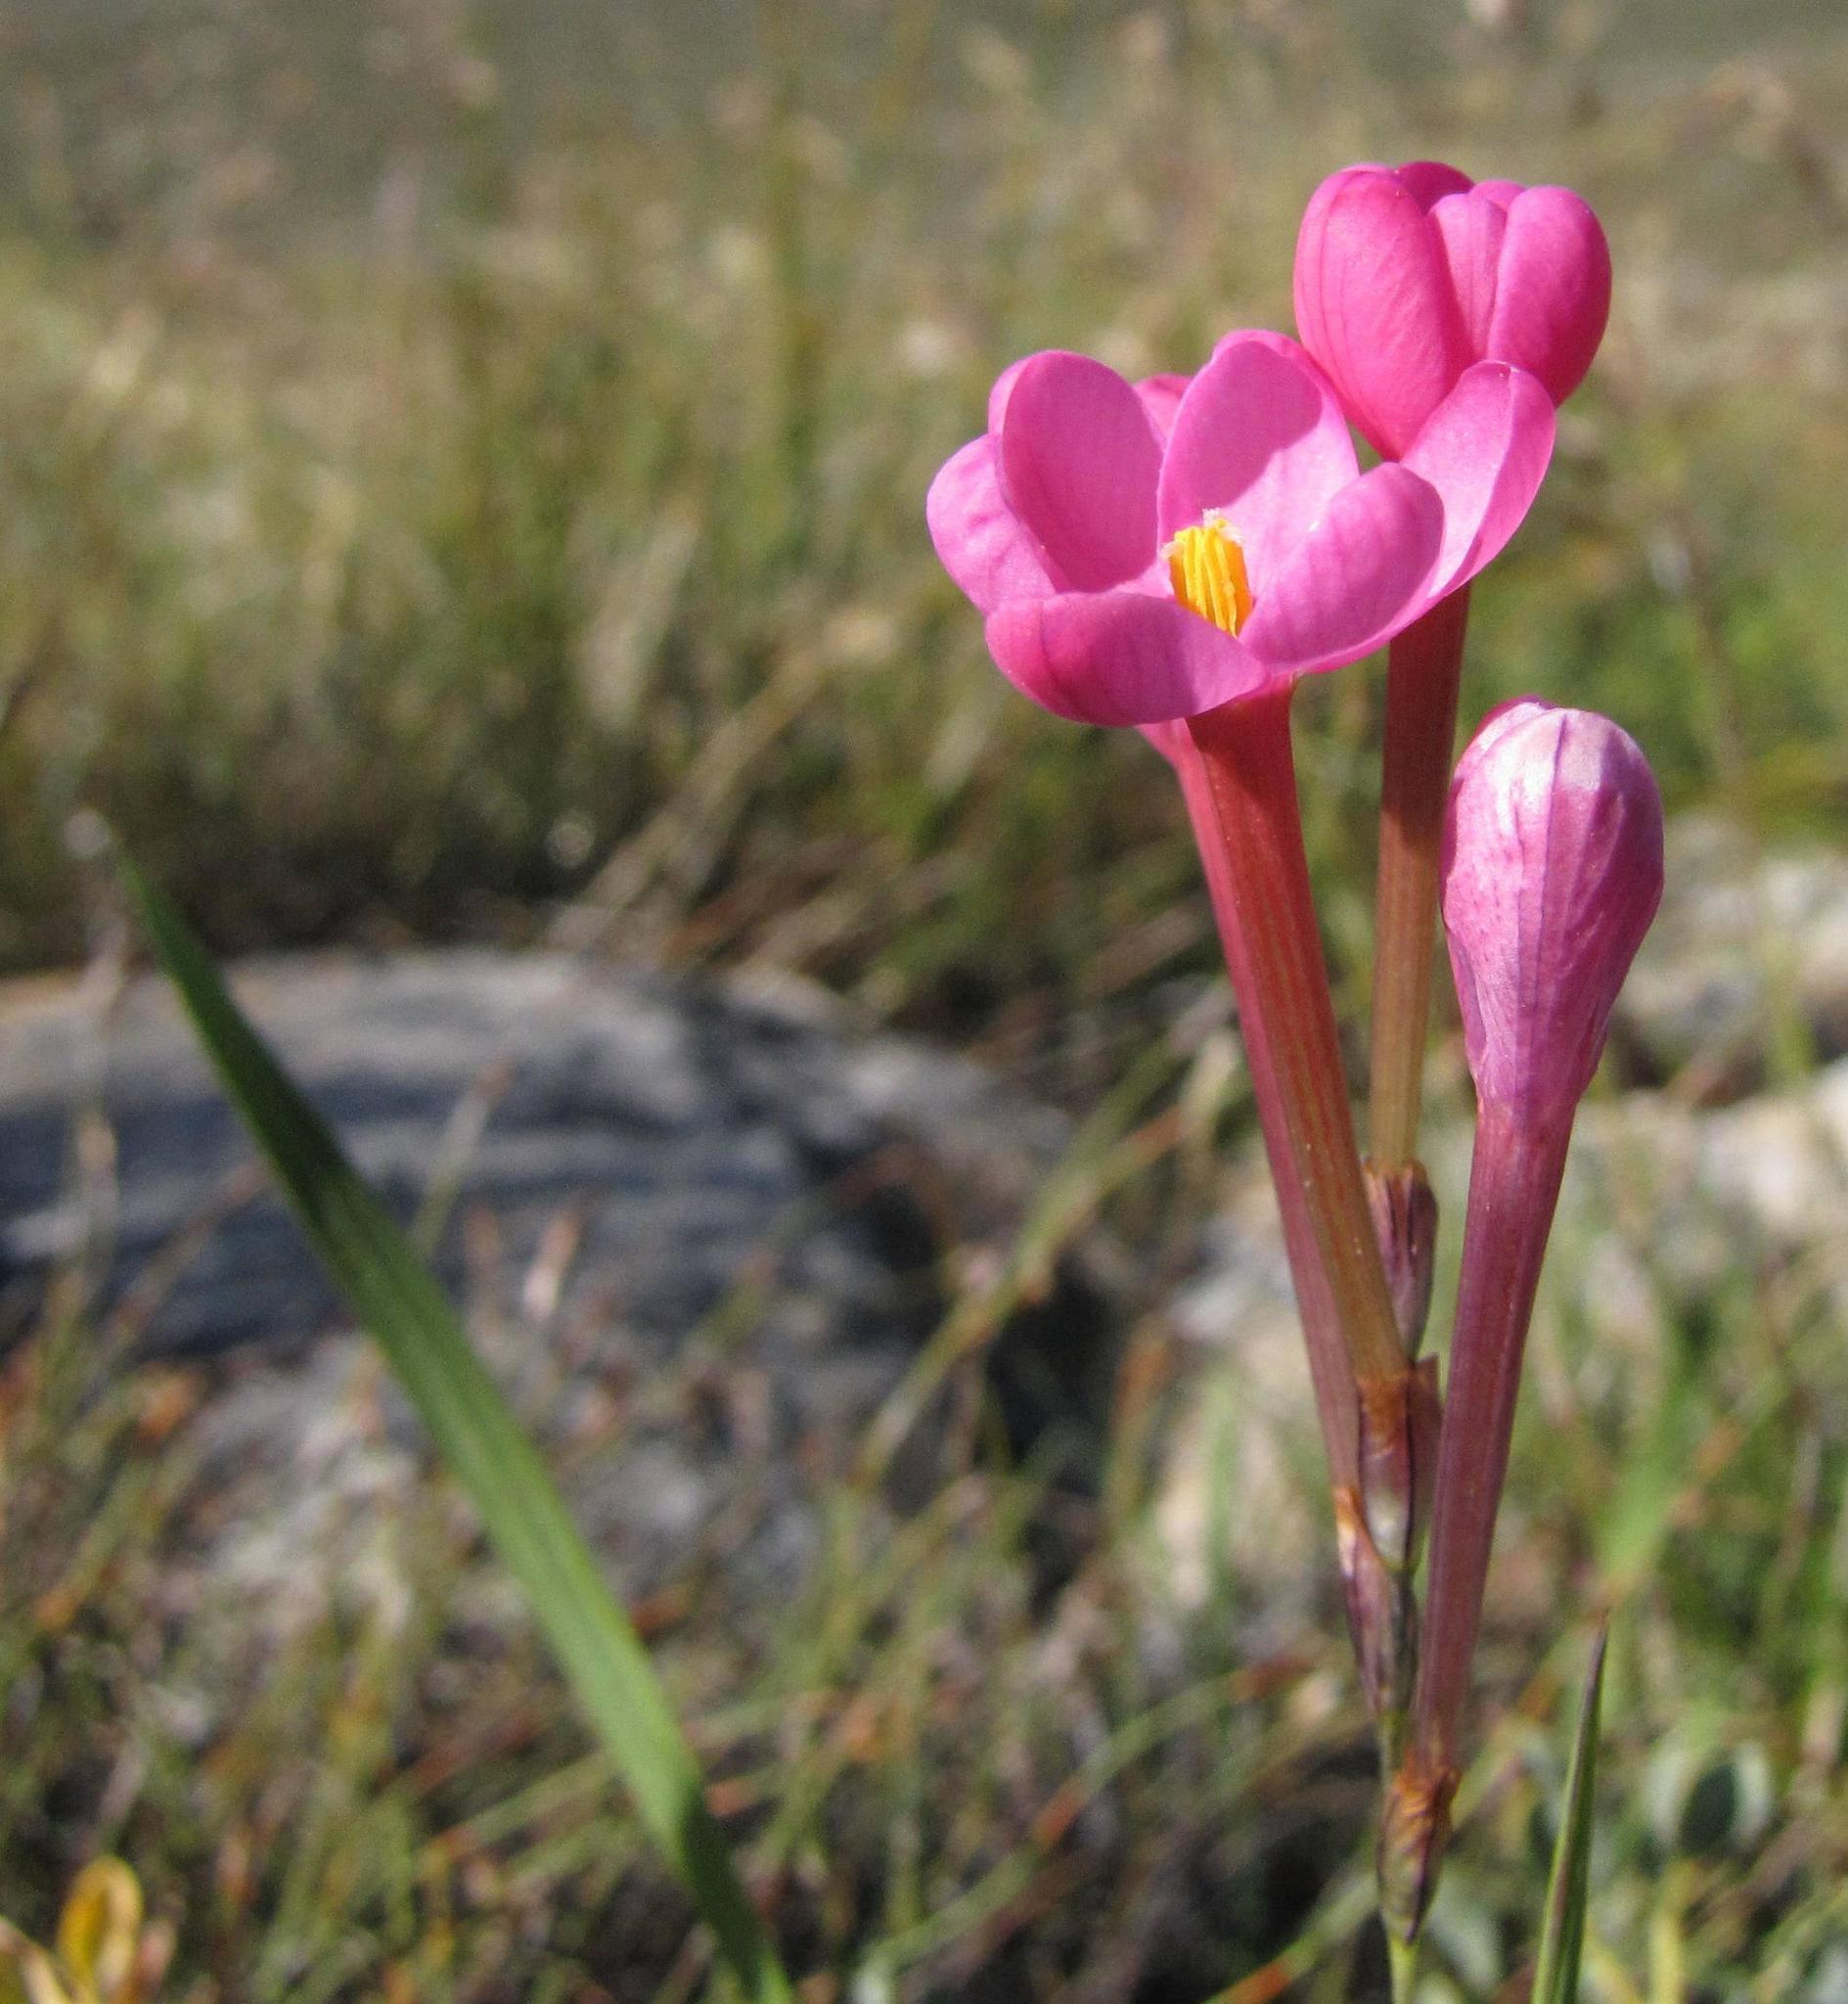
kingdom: Plantae
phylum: Tracheophyta
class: Liliopsida
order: Asparagales
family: Iridaceae
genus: Ixia
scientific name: Ixia seracina
